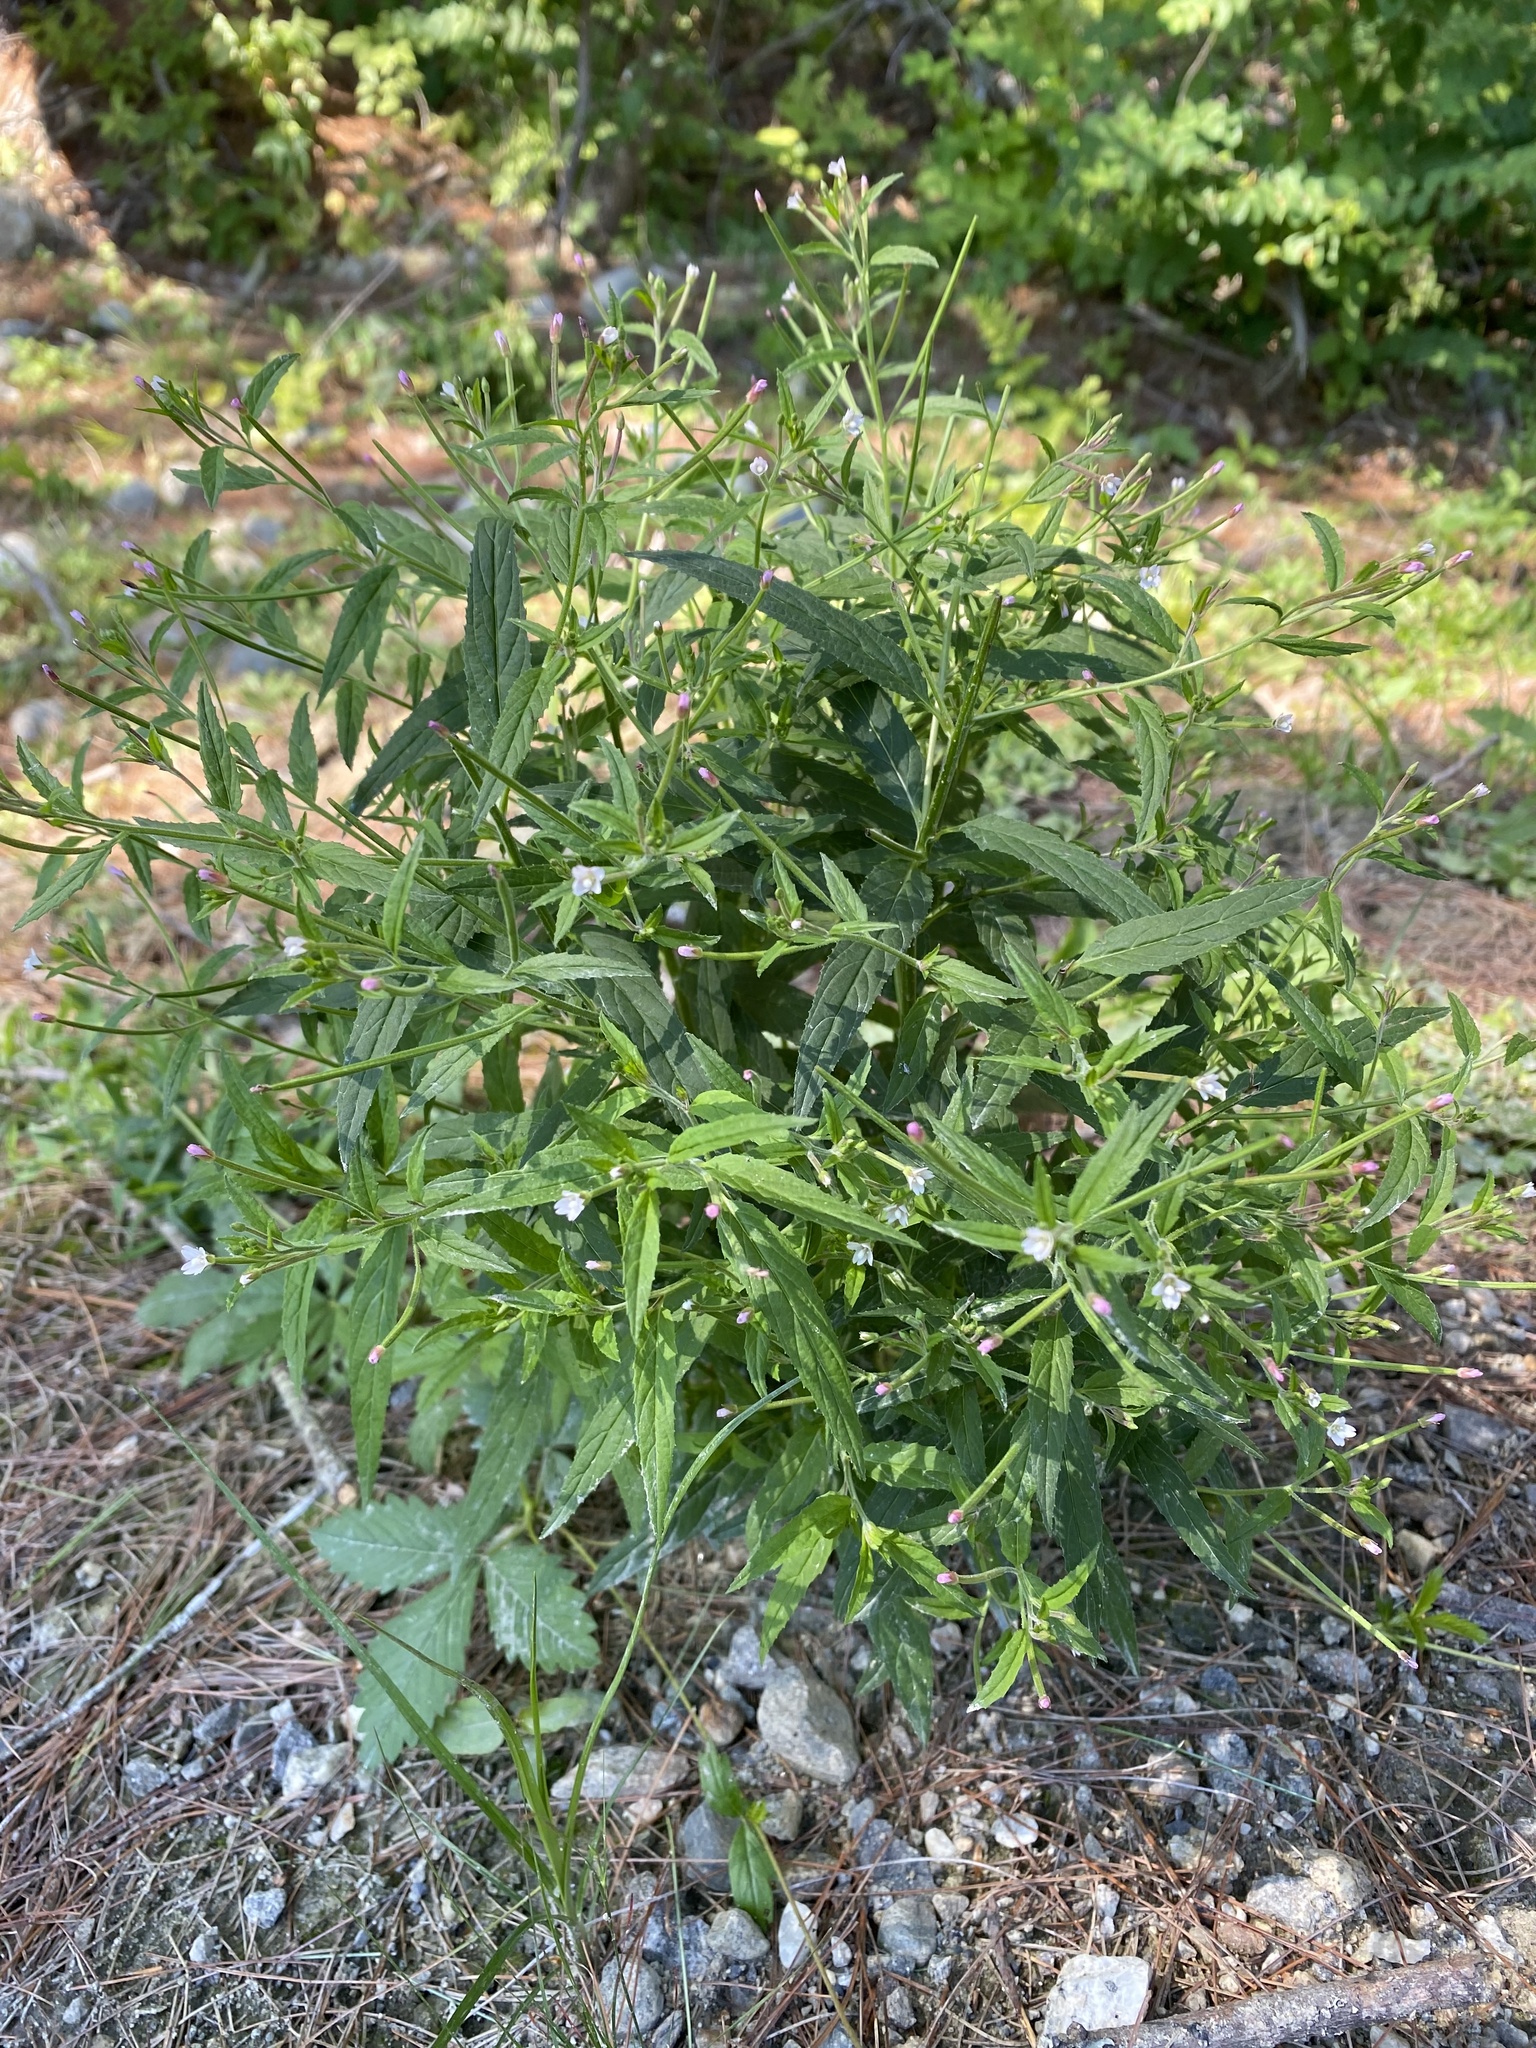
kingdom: Plantae
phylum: Tracheophyta
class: Magnoliopsida
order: Myrtales
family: Onagraceae
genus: Epilobium
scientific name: Epilobium coloratum
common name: Bronze willowherb
